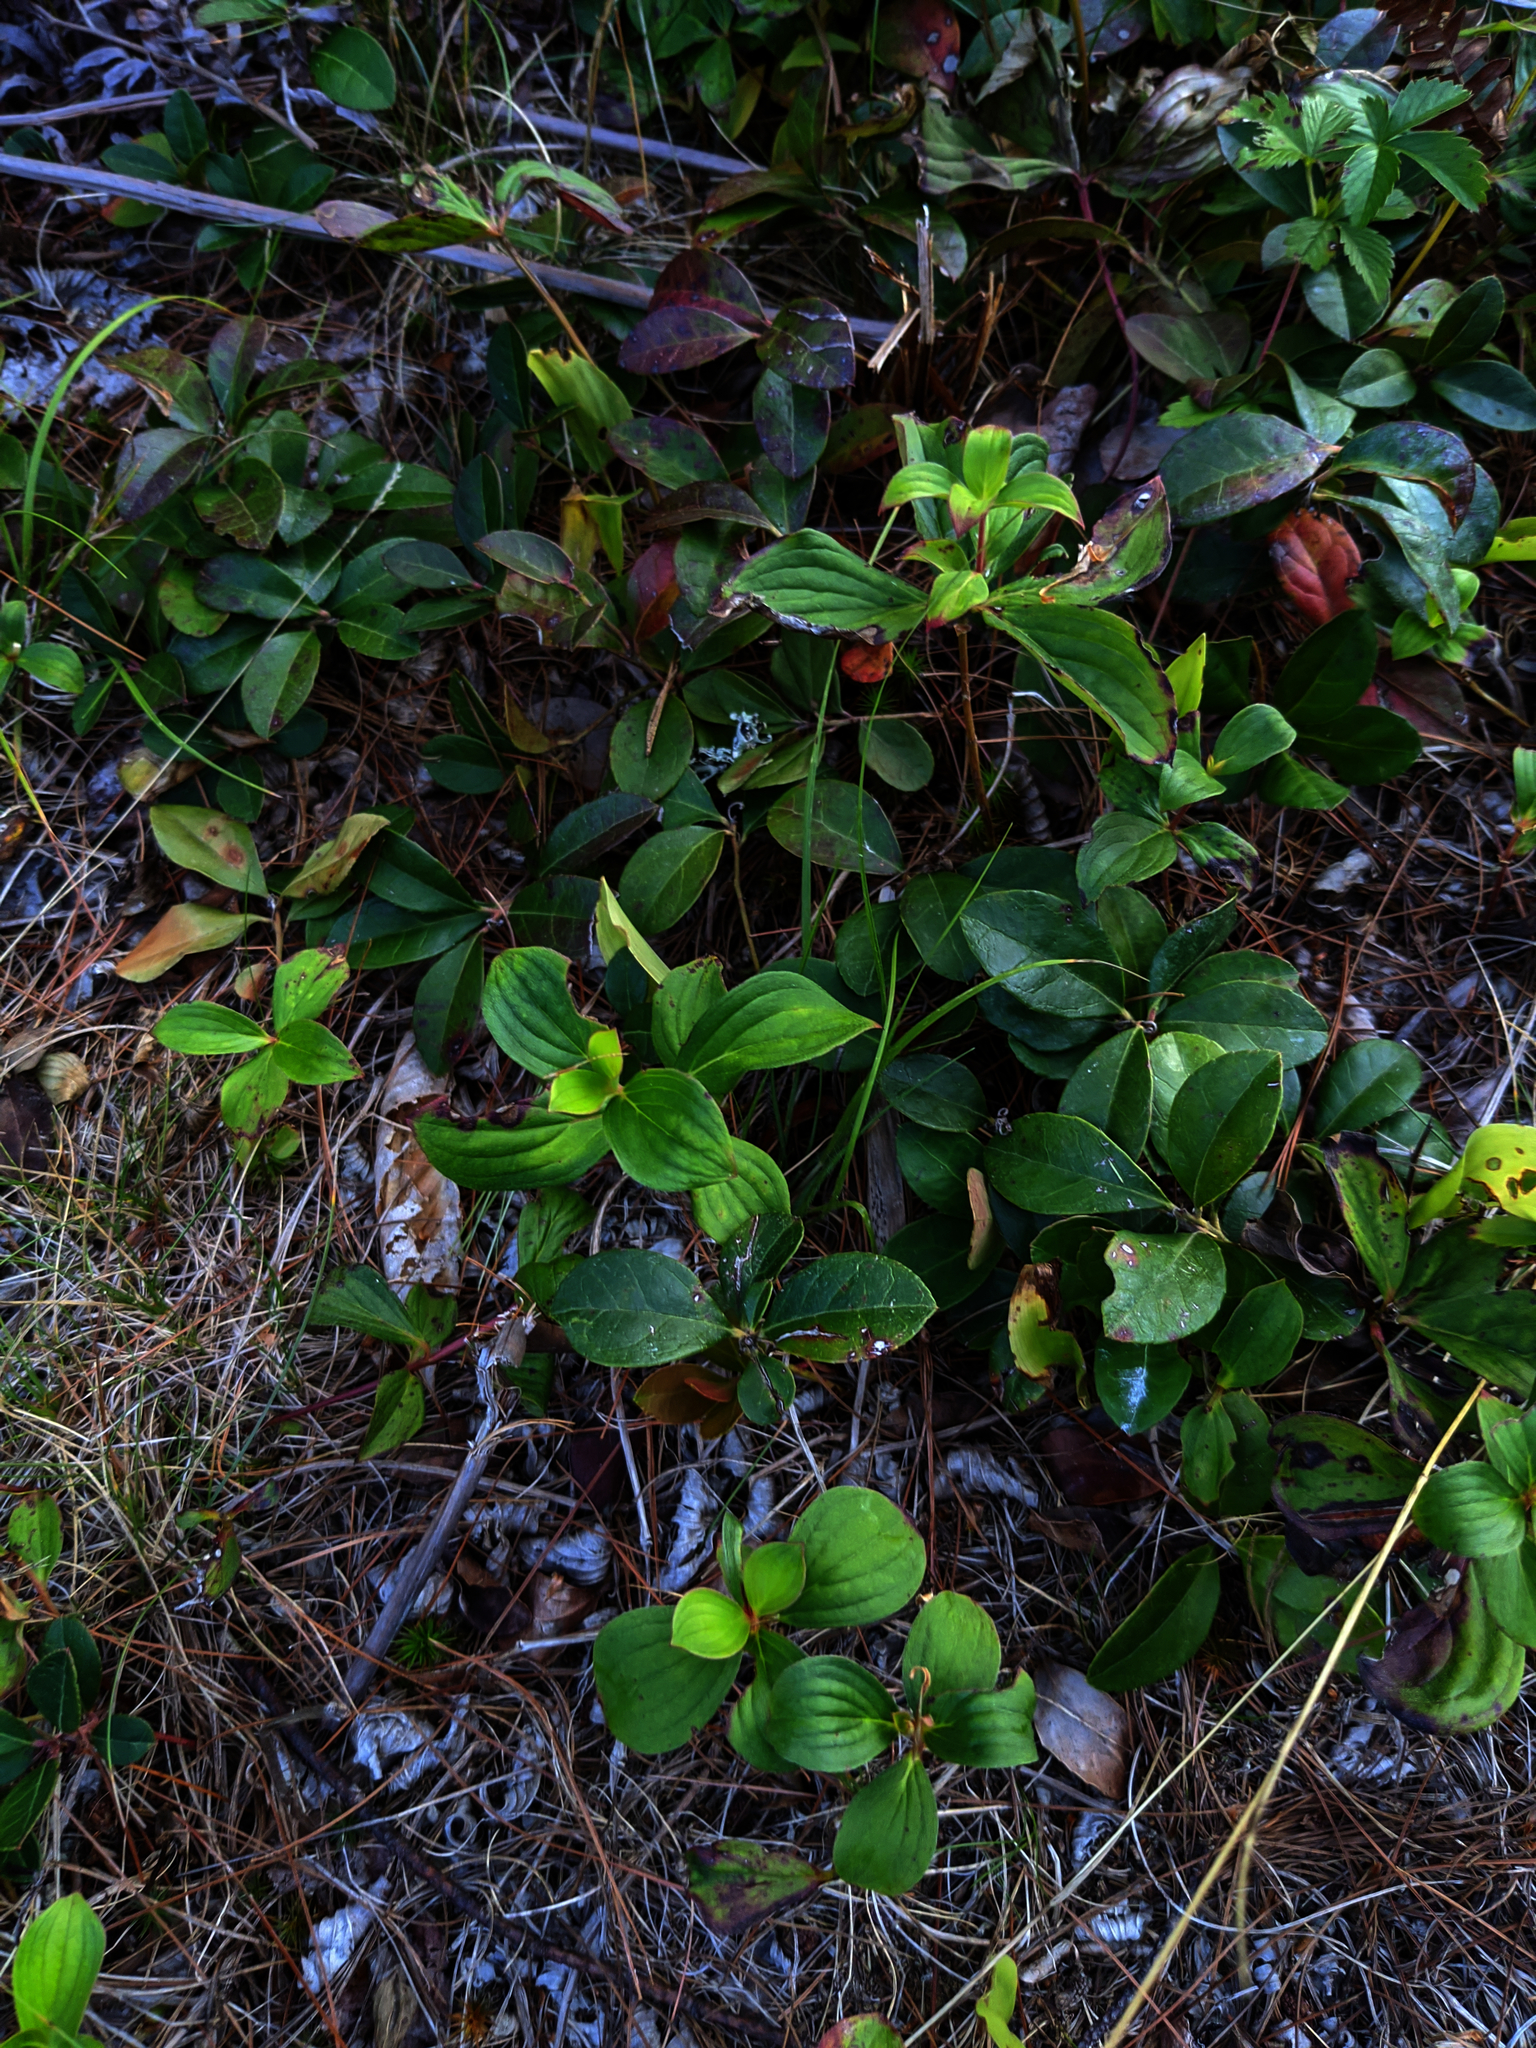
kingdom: Plantae
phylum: Tracheophyta
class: Magnoliopsida
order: Cornales
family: Cornaceae
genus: Cornus
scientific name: Cornus canadensis
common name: Creeping dogwood
